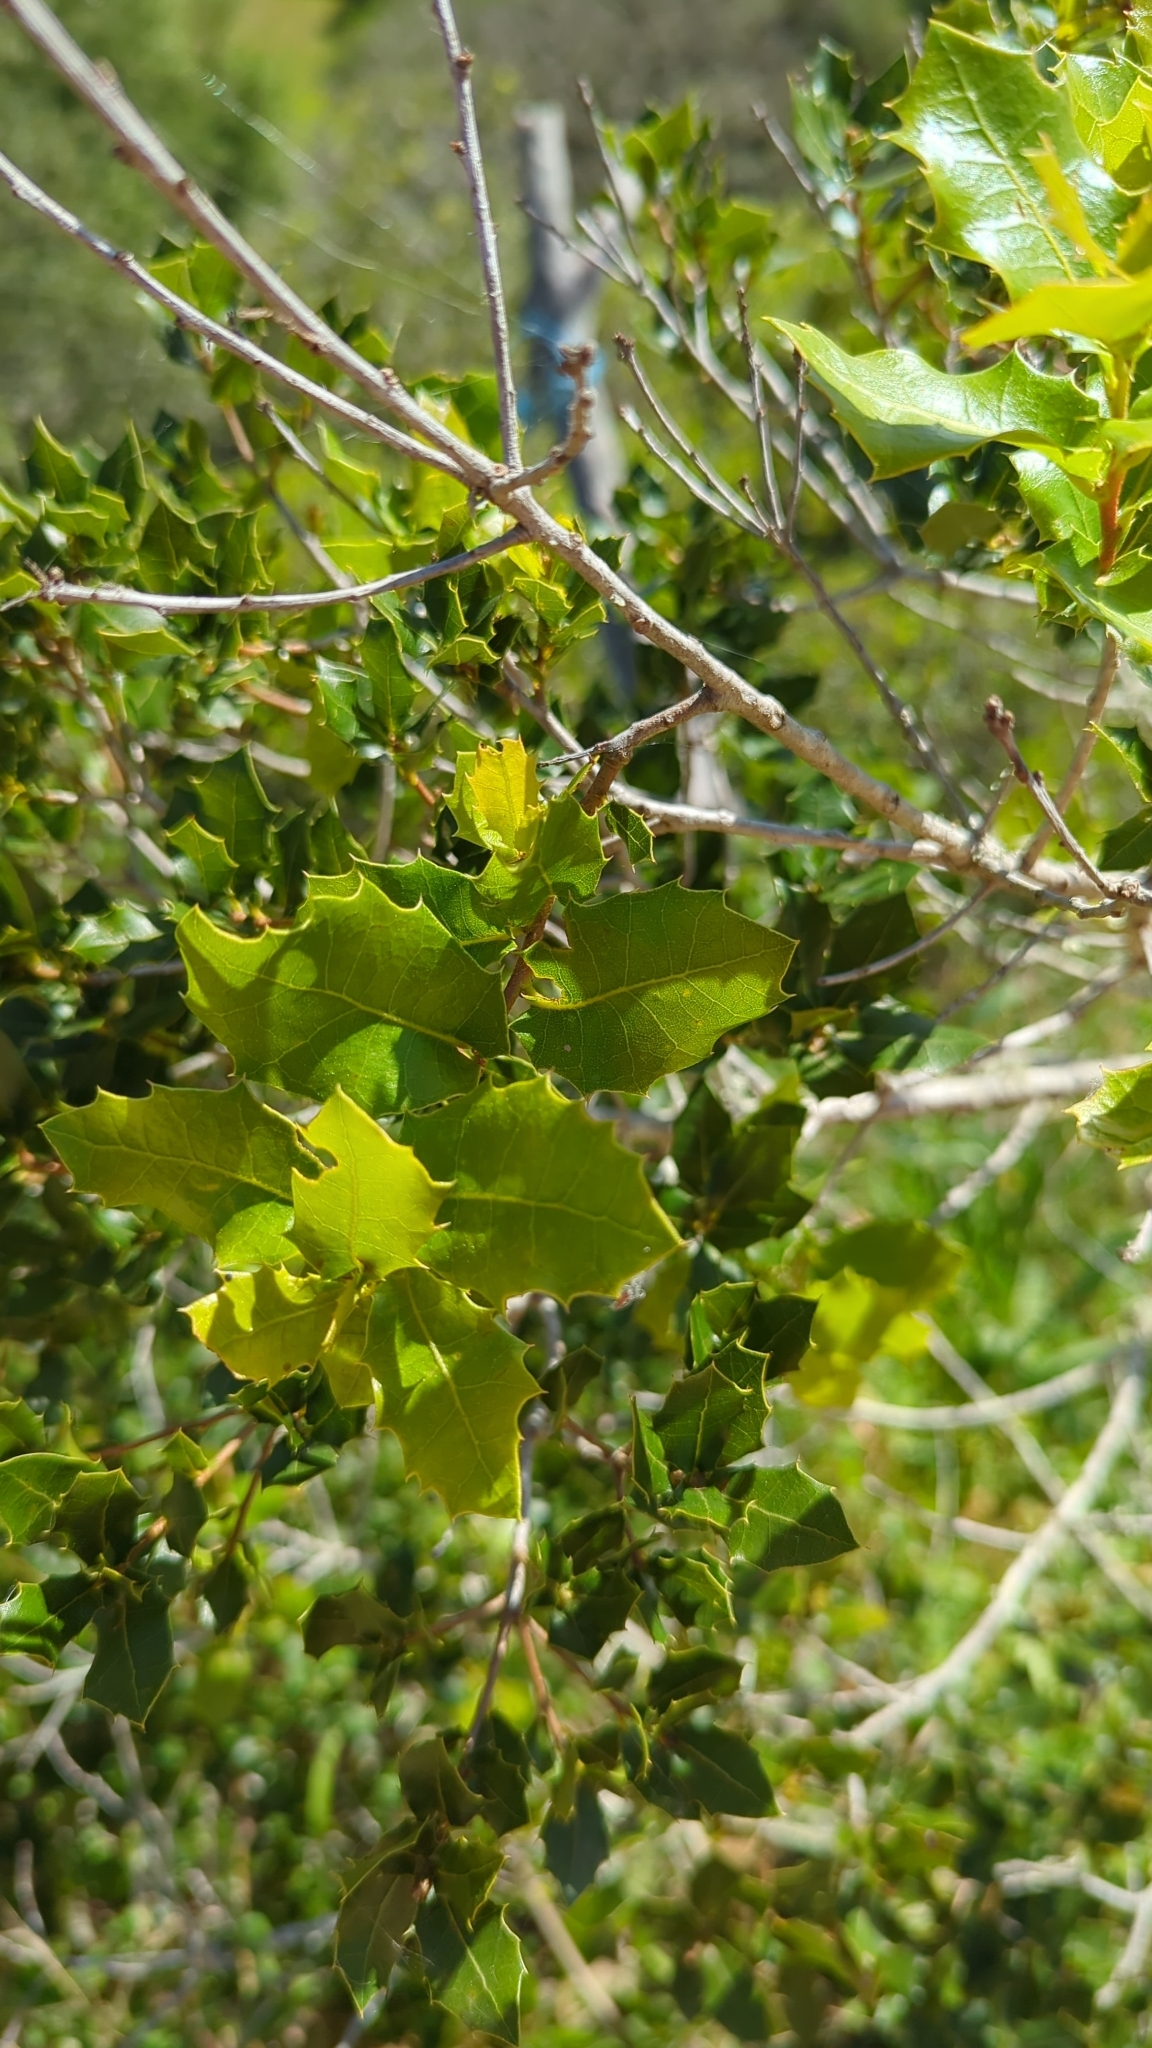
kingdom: Plantae
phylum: Tracheophyta
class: Magnoliopsida
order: Fagales
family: Fagaceae
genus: Quercus
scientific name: Quercus coccifera
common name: Kermes oak
